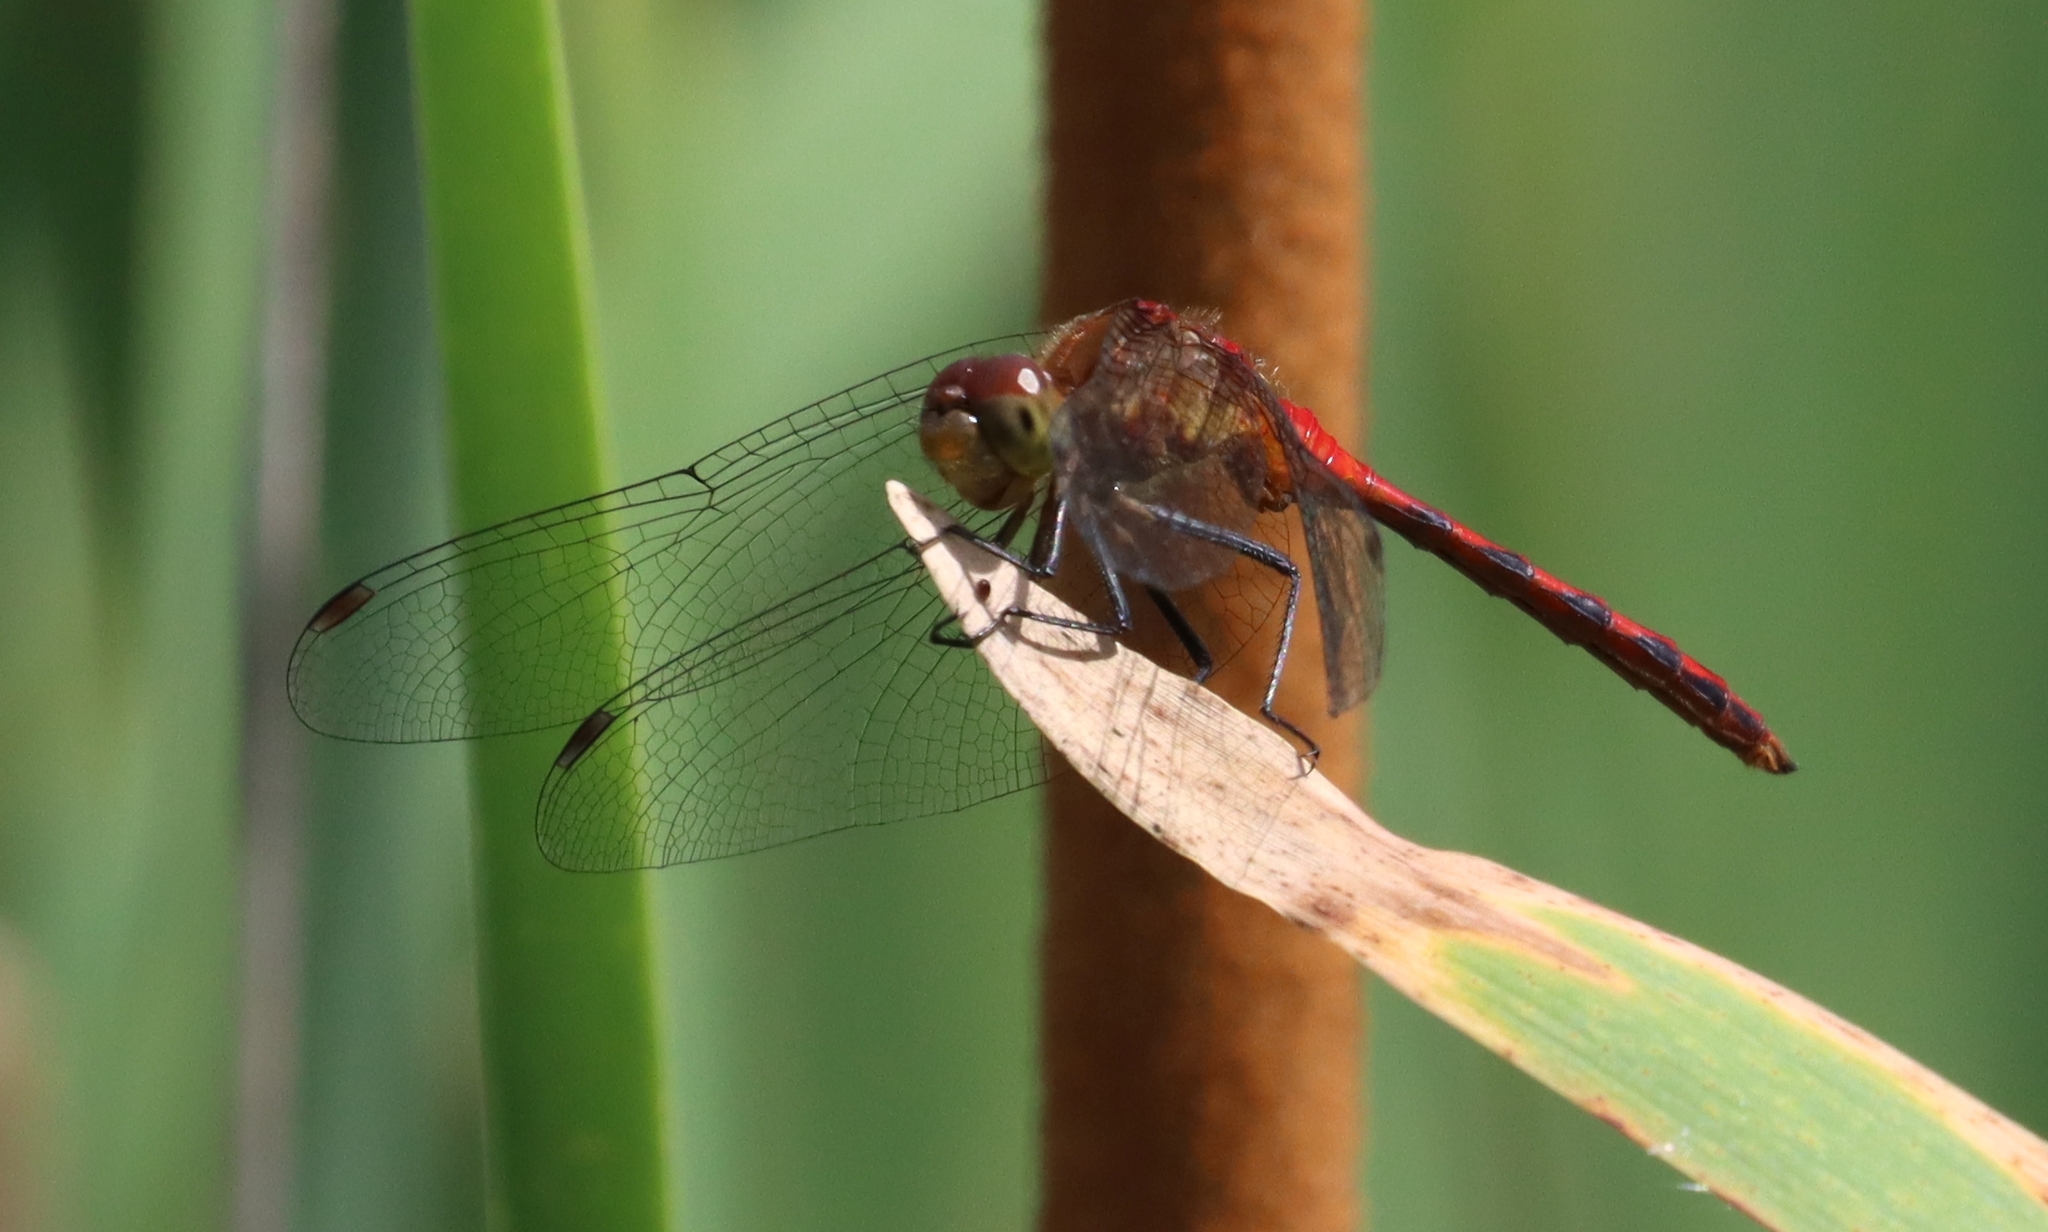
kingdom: Animalia
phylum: Arthropoda
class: Insecta
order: Odonata
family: Libellulidae
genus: Sympetrum
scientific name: Sympetrum
